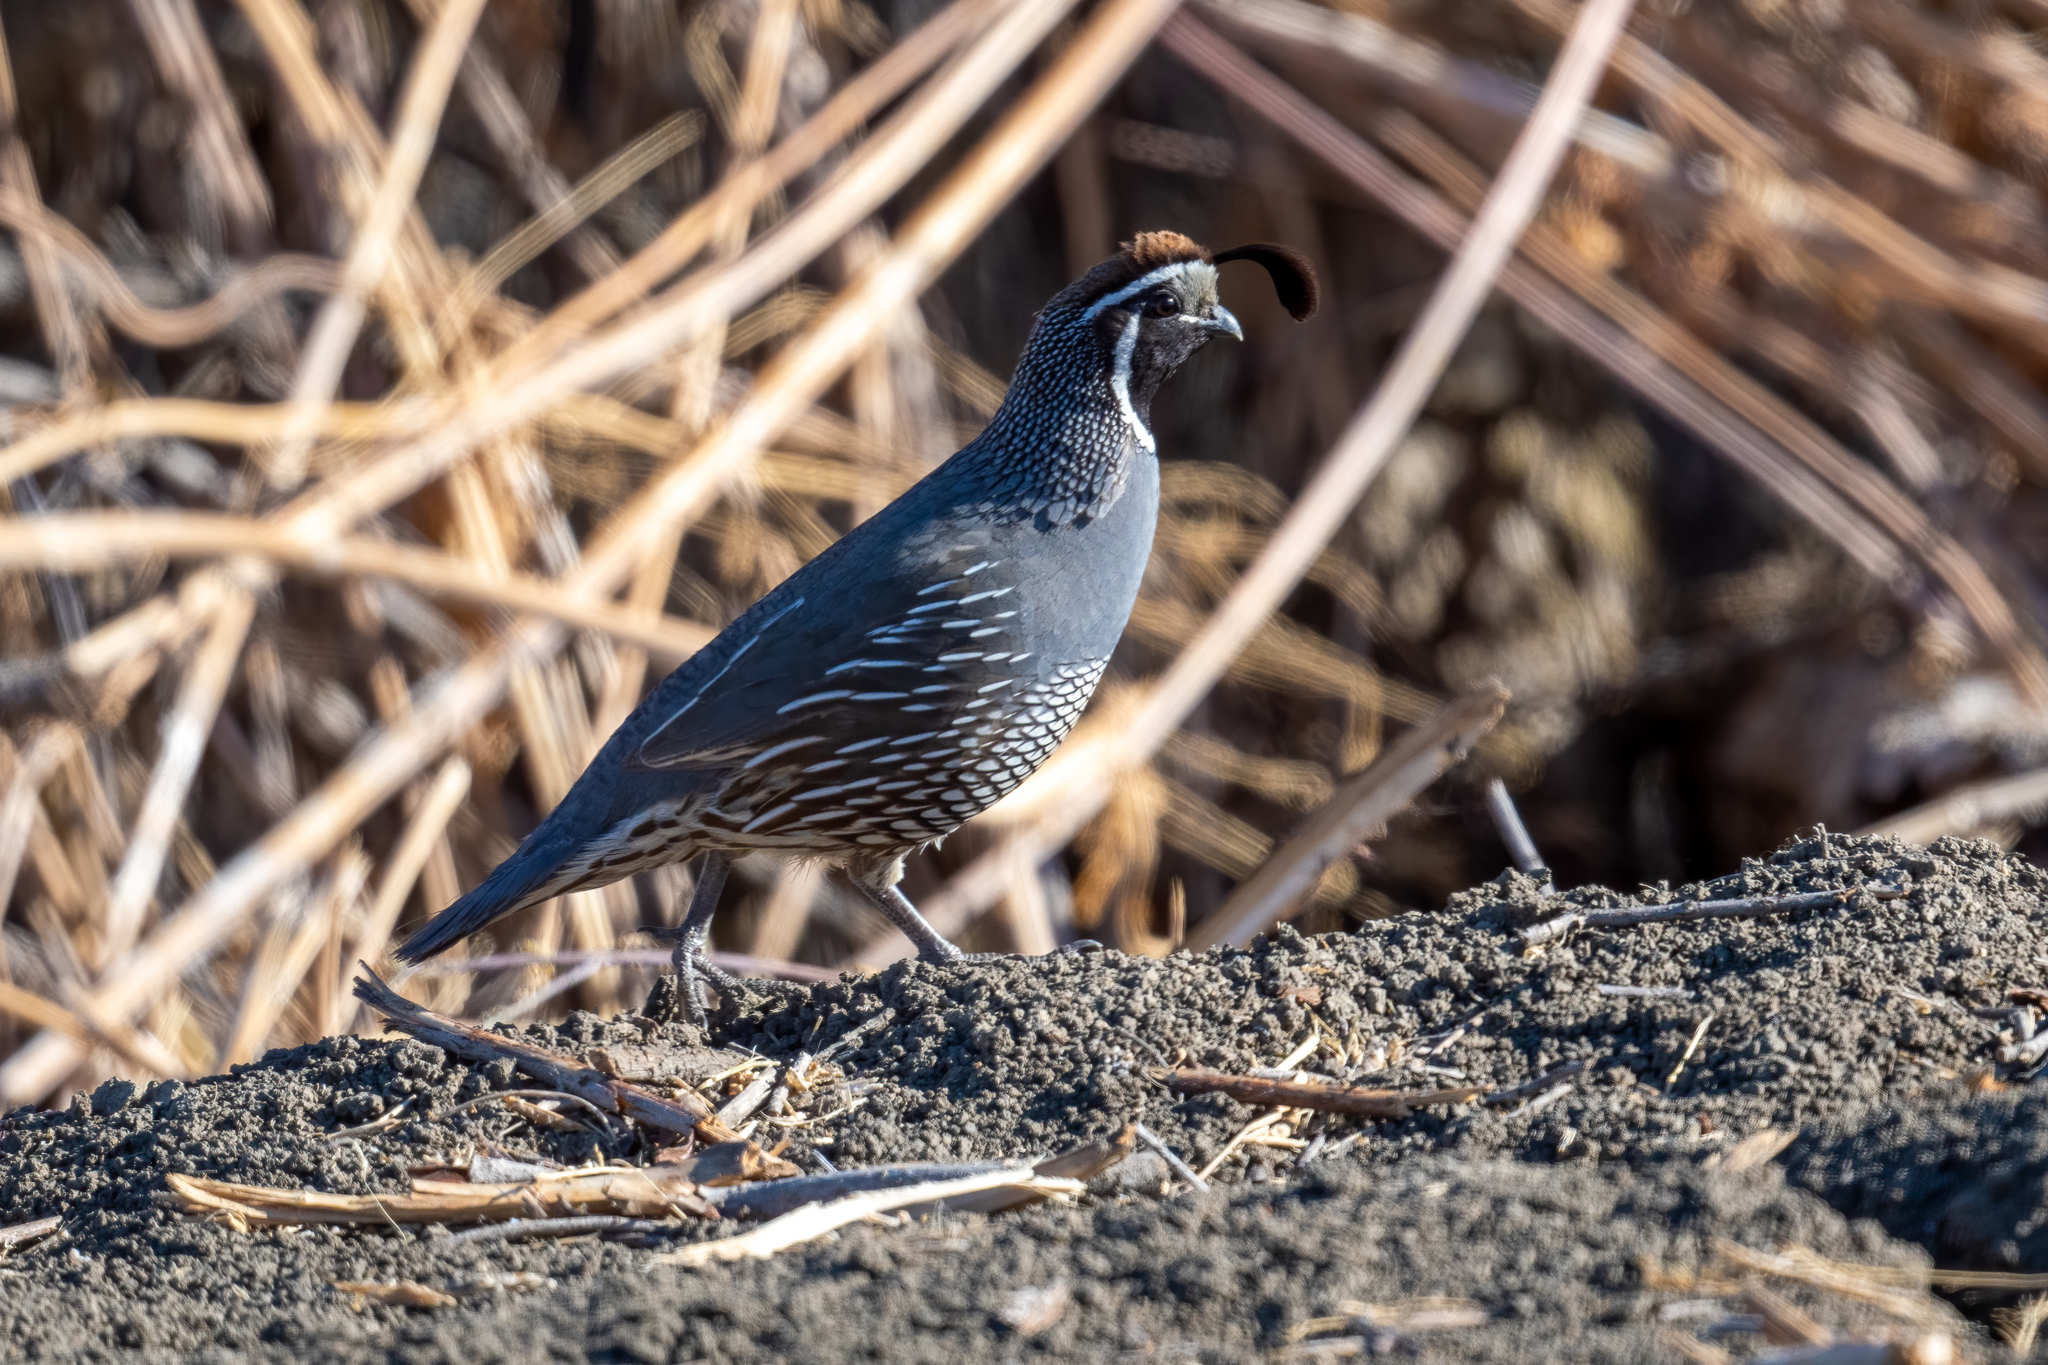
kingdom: Animalia
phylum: Chordata
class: Aves
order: Galliformes
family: Odontophoridae
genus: Callipepla
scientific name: Callipepla californica
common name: California quail
